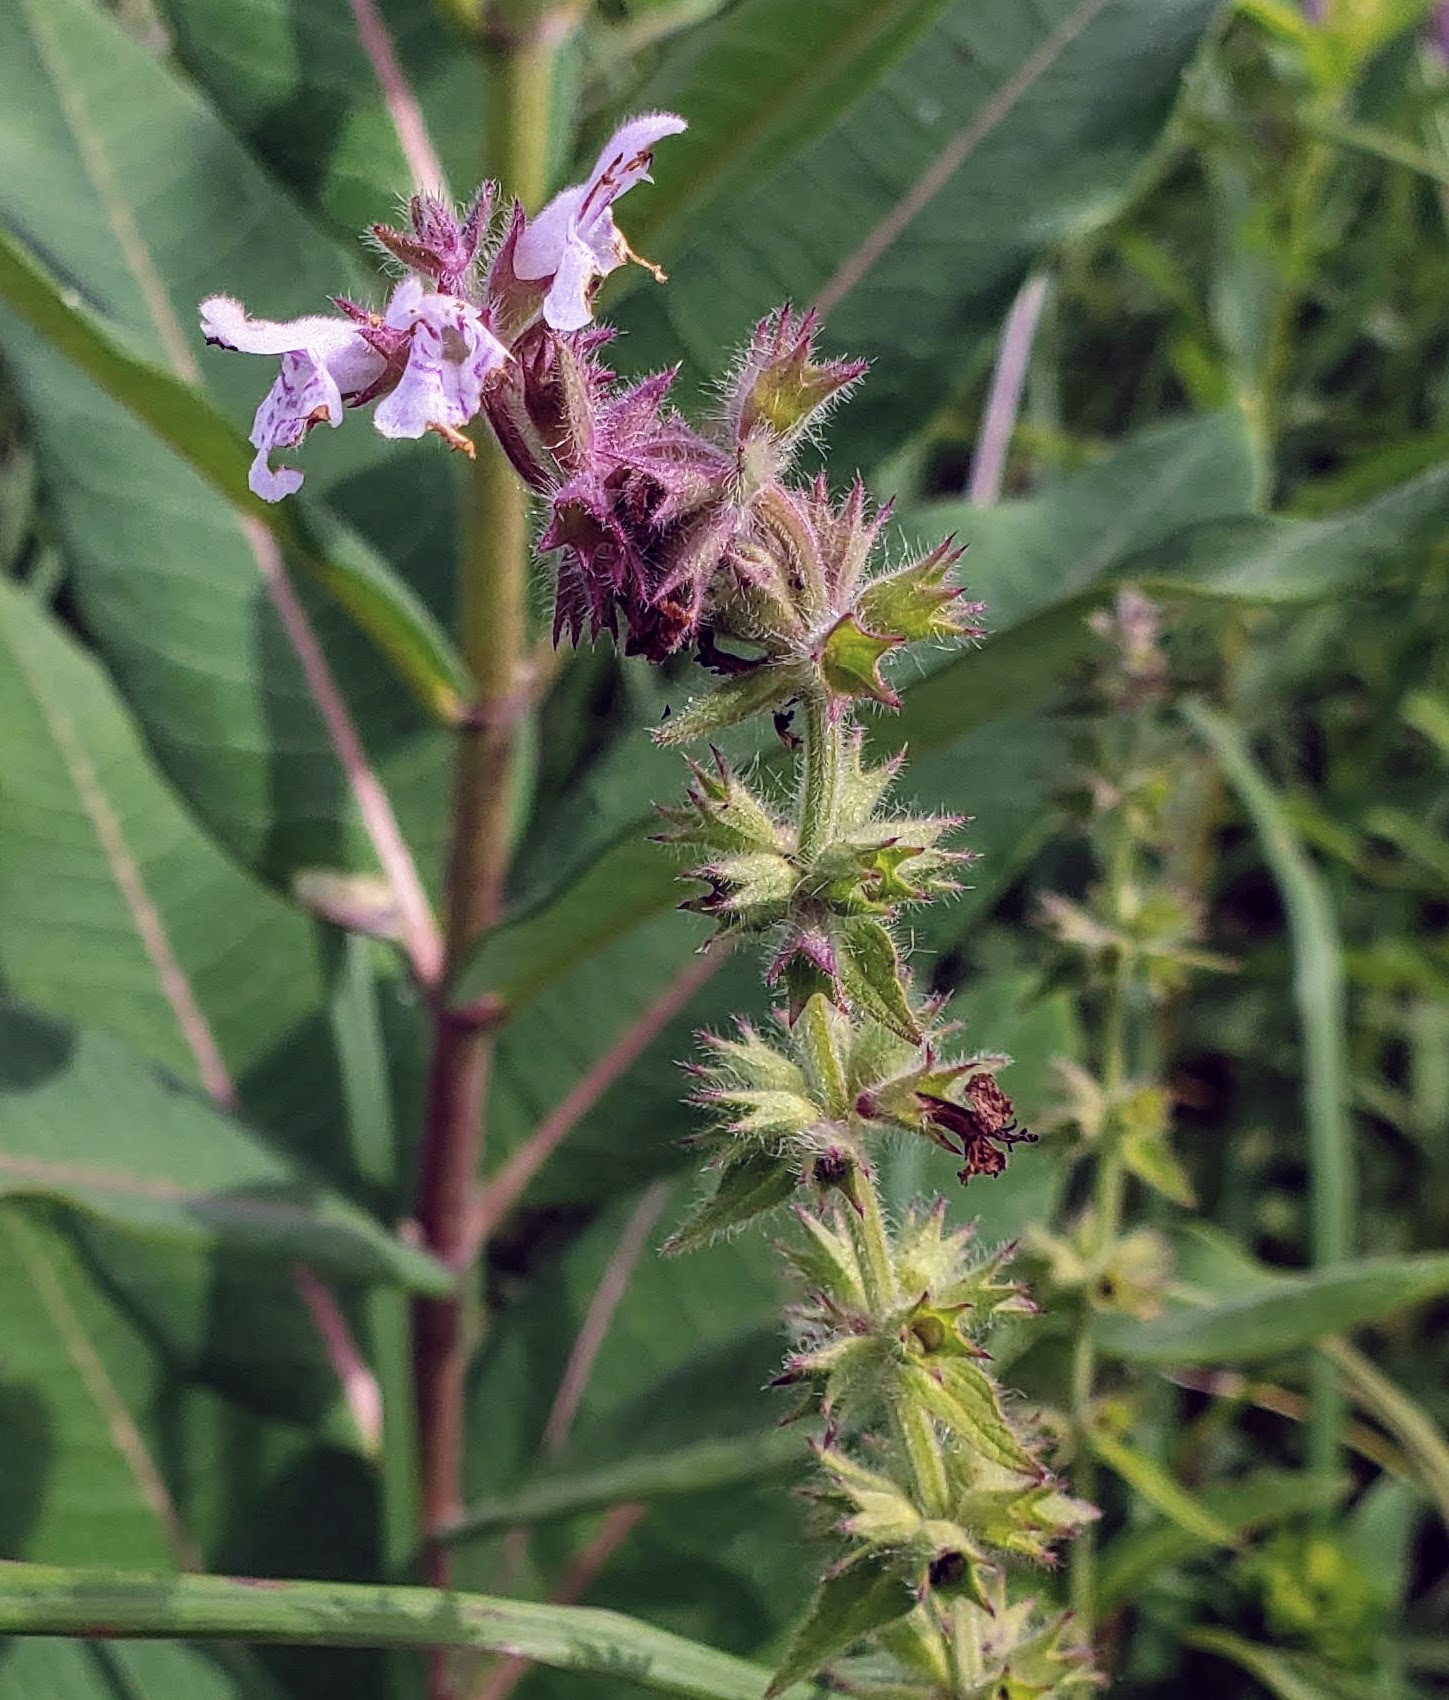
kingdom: Plantae
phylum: Tracheophyta
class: Magnoliopsida
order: Lamiales
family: Lamiaceae
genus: Stachys
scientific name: Stachys pilosa
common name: Hairy hedge-nettle
